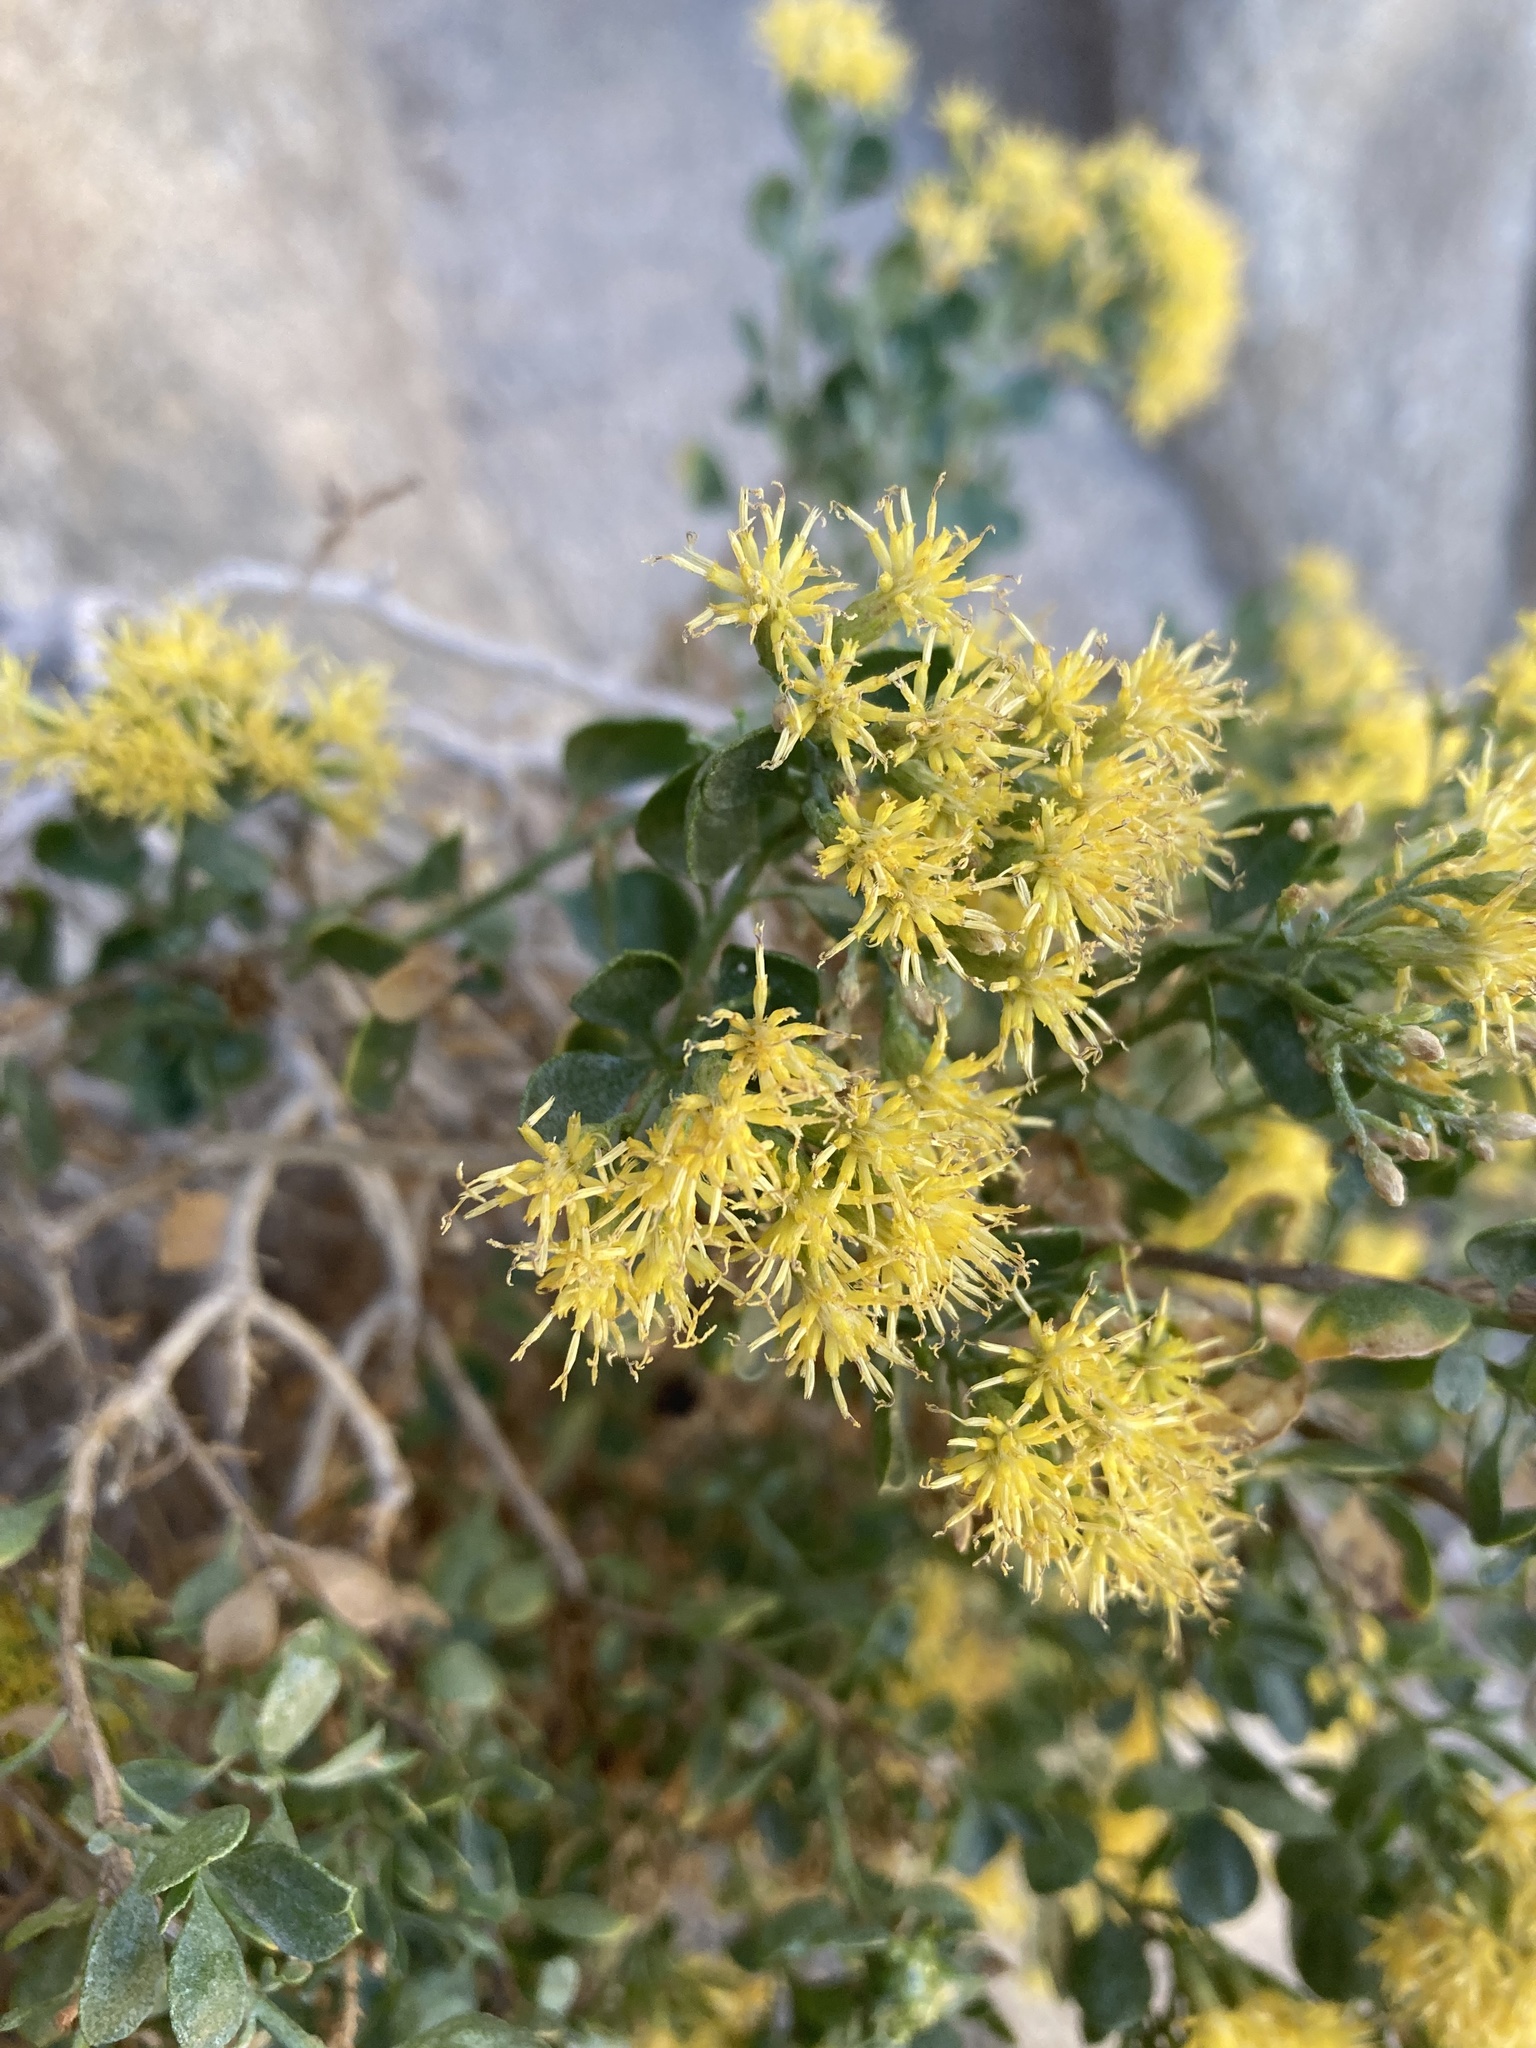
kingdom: Plantae
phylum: Tracheophyta
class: Magnoliopsida
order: Asterales
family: Asteraceae
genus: Ericameria
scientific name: Ericameria cuneata
